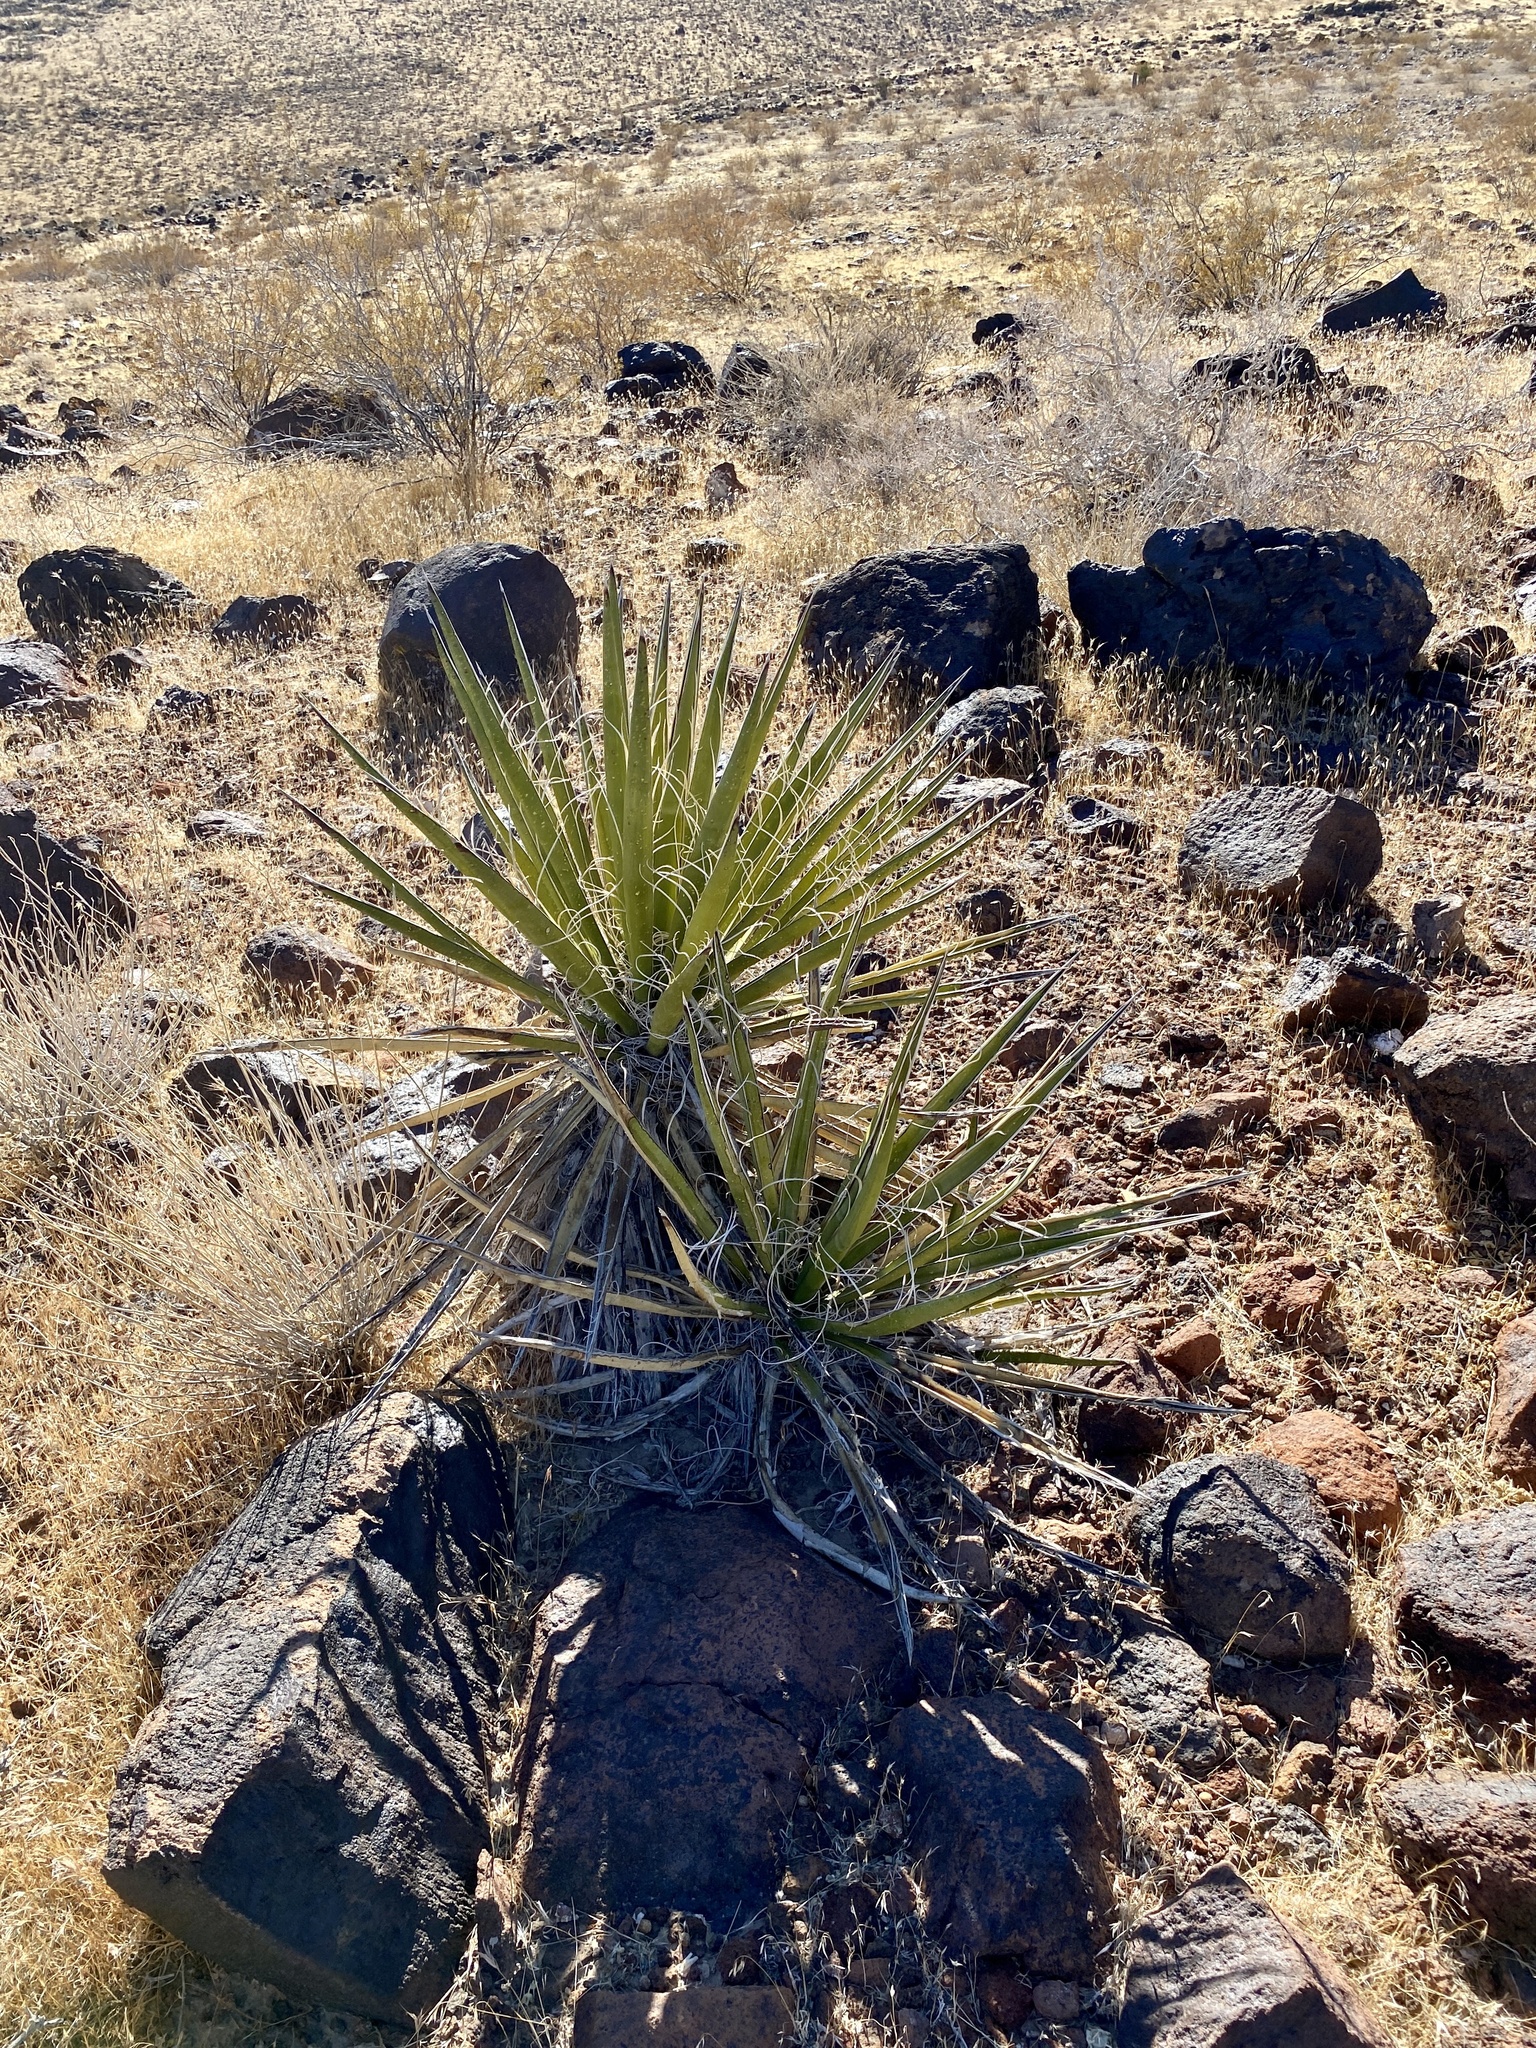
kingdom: Plantae
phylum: Tracheophyta
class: Liliopsida
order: Asparagales
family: Asparagaceae
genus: Yucca
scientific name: Yucca schidigera
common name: Mojave yucca
